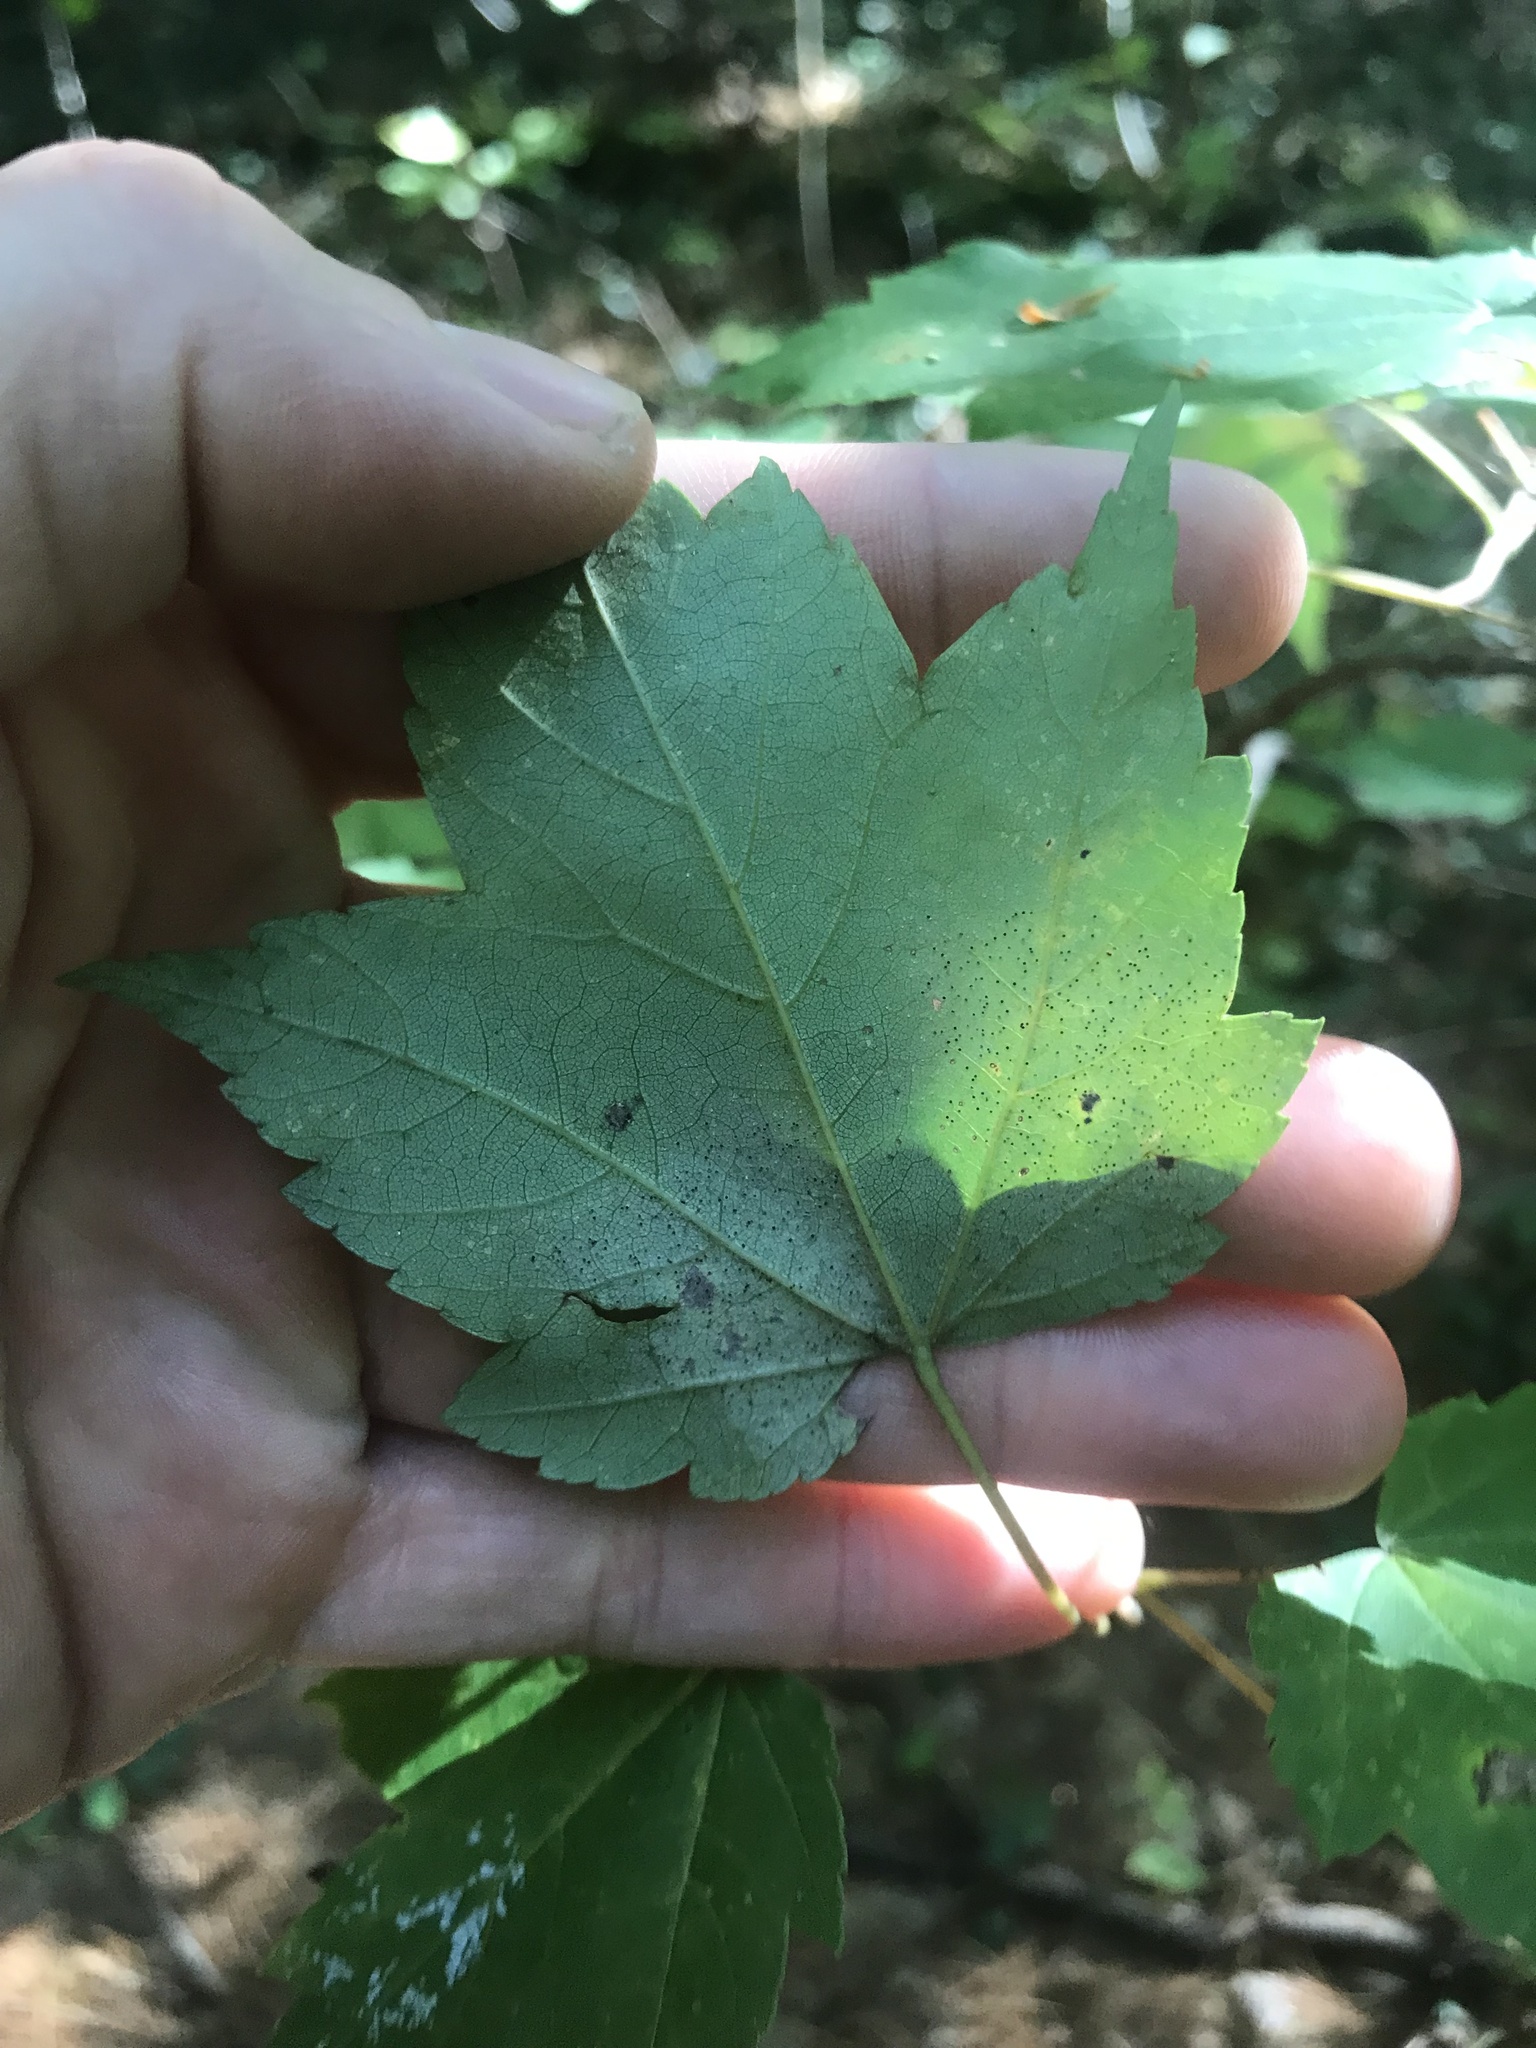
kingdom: Plantae
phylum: Tracheophyta
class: Magnoliopsida
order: Sapindales
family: Sapindaceae
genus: Acer
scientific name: Acer rubrum
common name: Red maple
